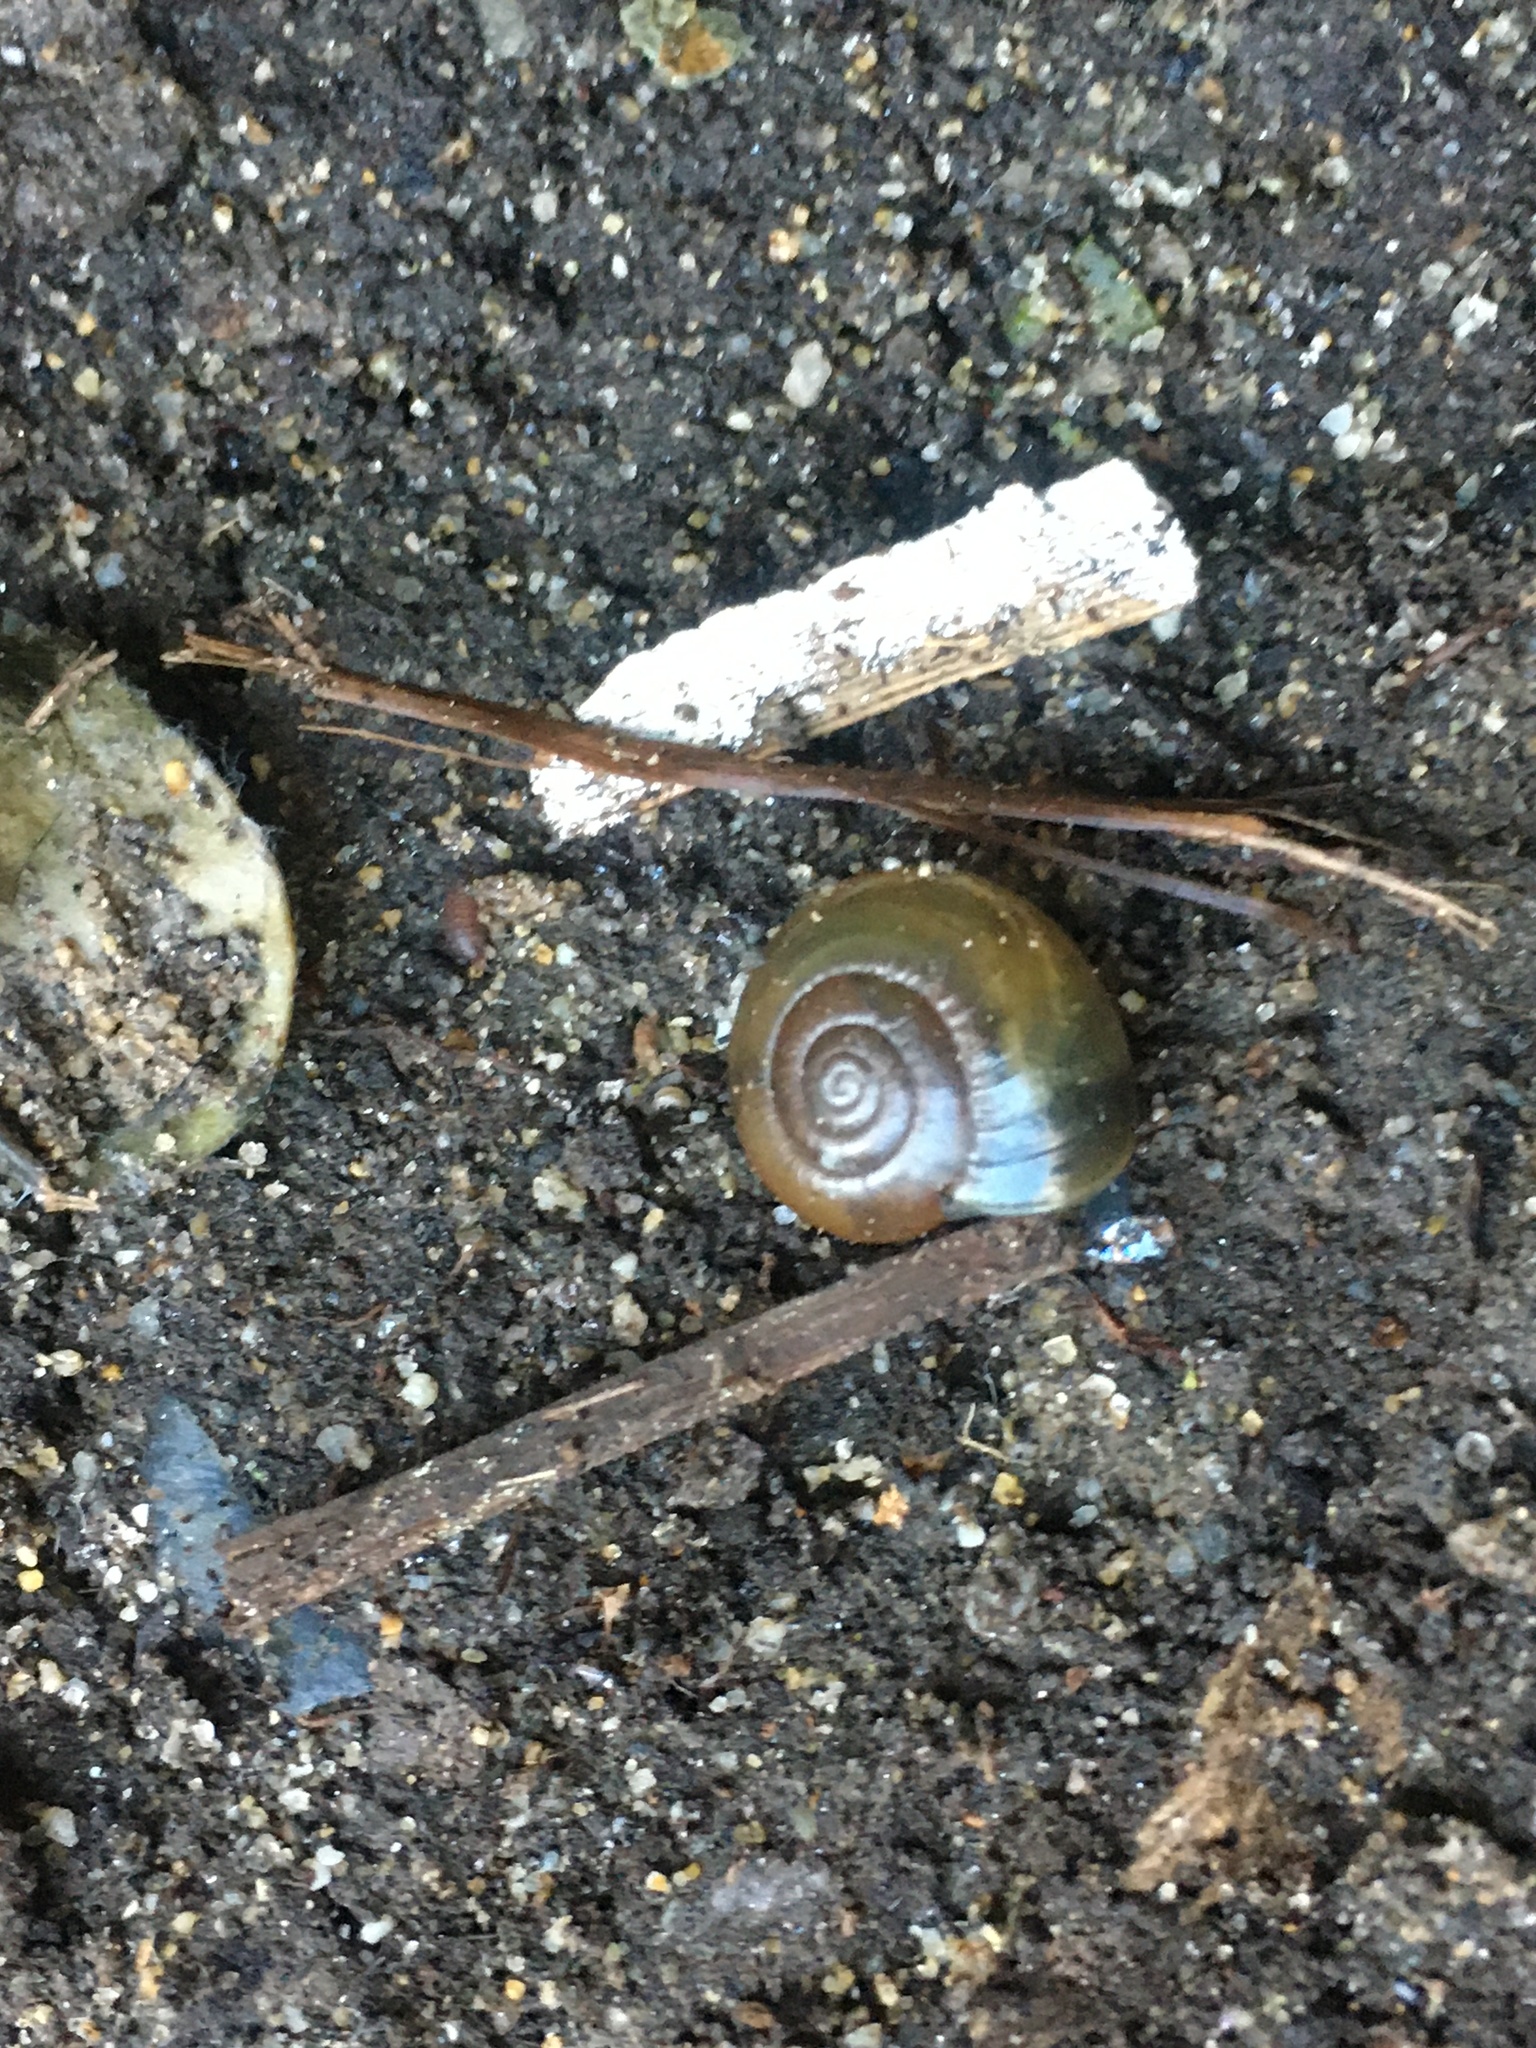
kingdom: Animalia
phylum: Mollusca
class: Gastropoda
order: Stylommatophora
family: Oxychilidae
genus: Oxychilus
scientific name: Oxychilus draparnaudi
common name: Draparnaud's glass snail
